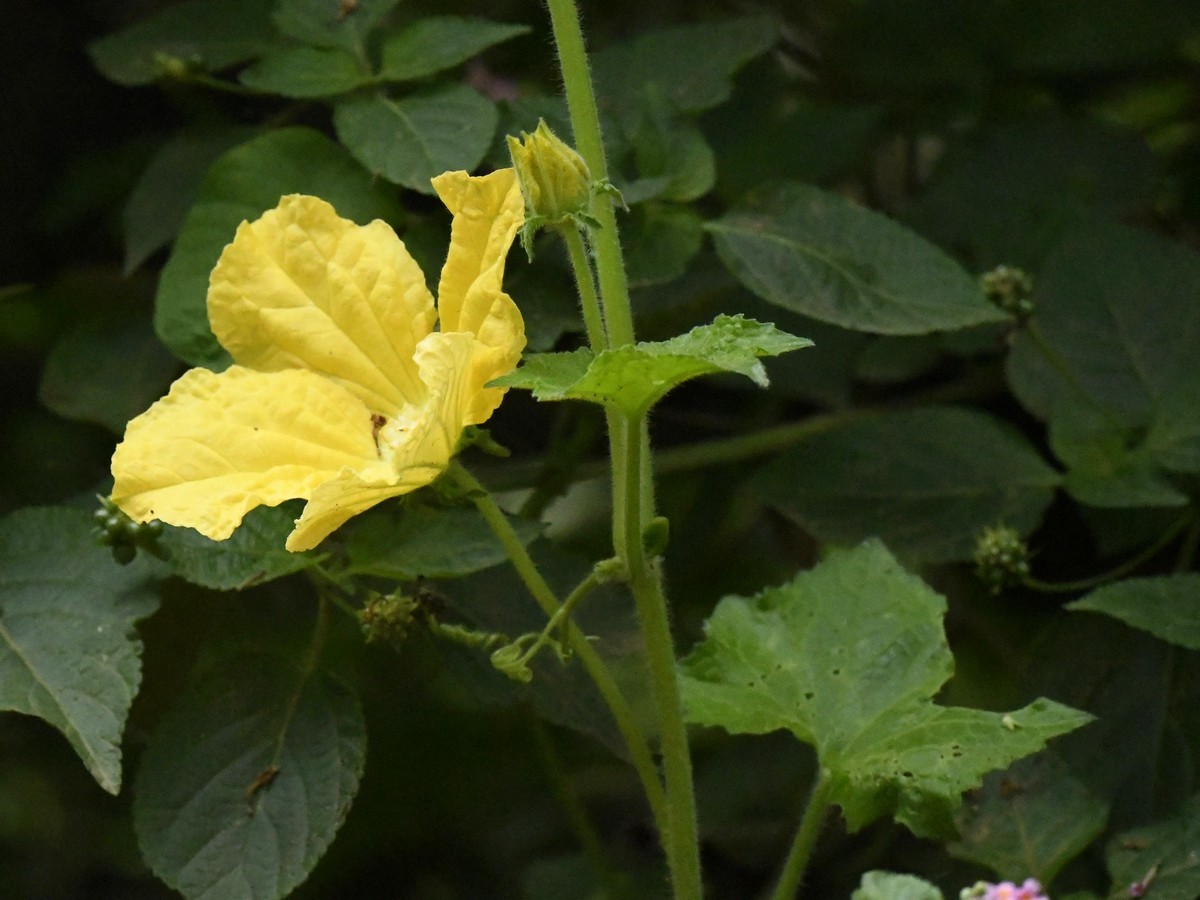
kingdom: Plantae
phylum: Tracheophyta
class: Magnoliopsida
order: Cucurbitales
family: Cucurbitaceae
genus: Benincasa
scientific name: Benincasa hispida
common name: Chinese-watermelon
